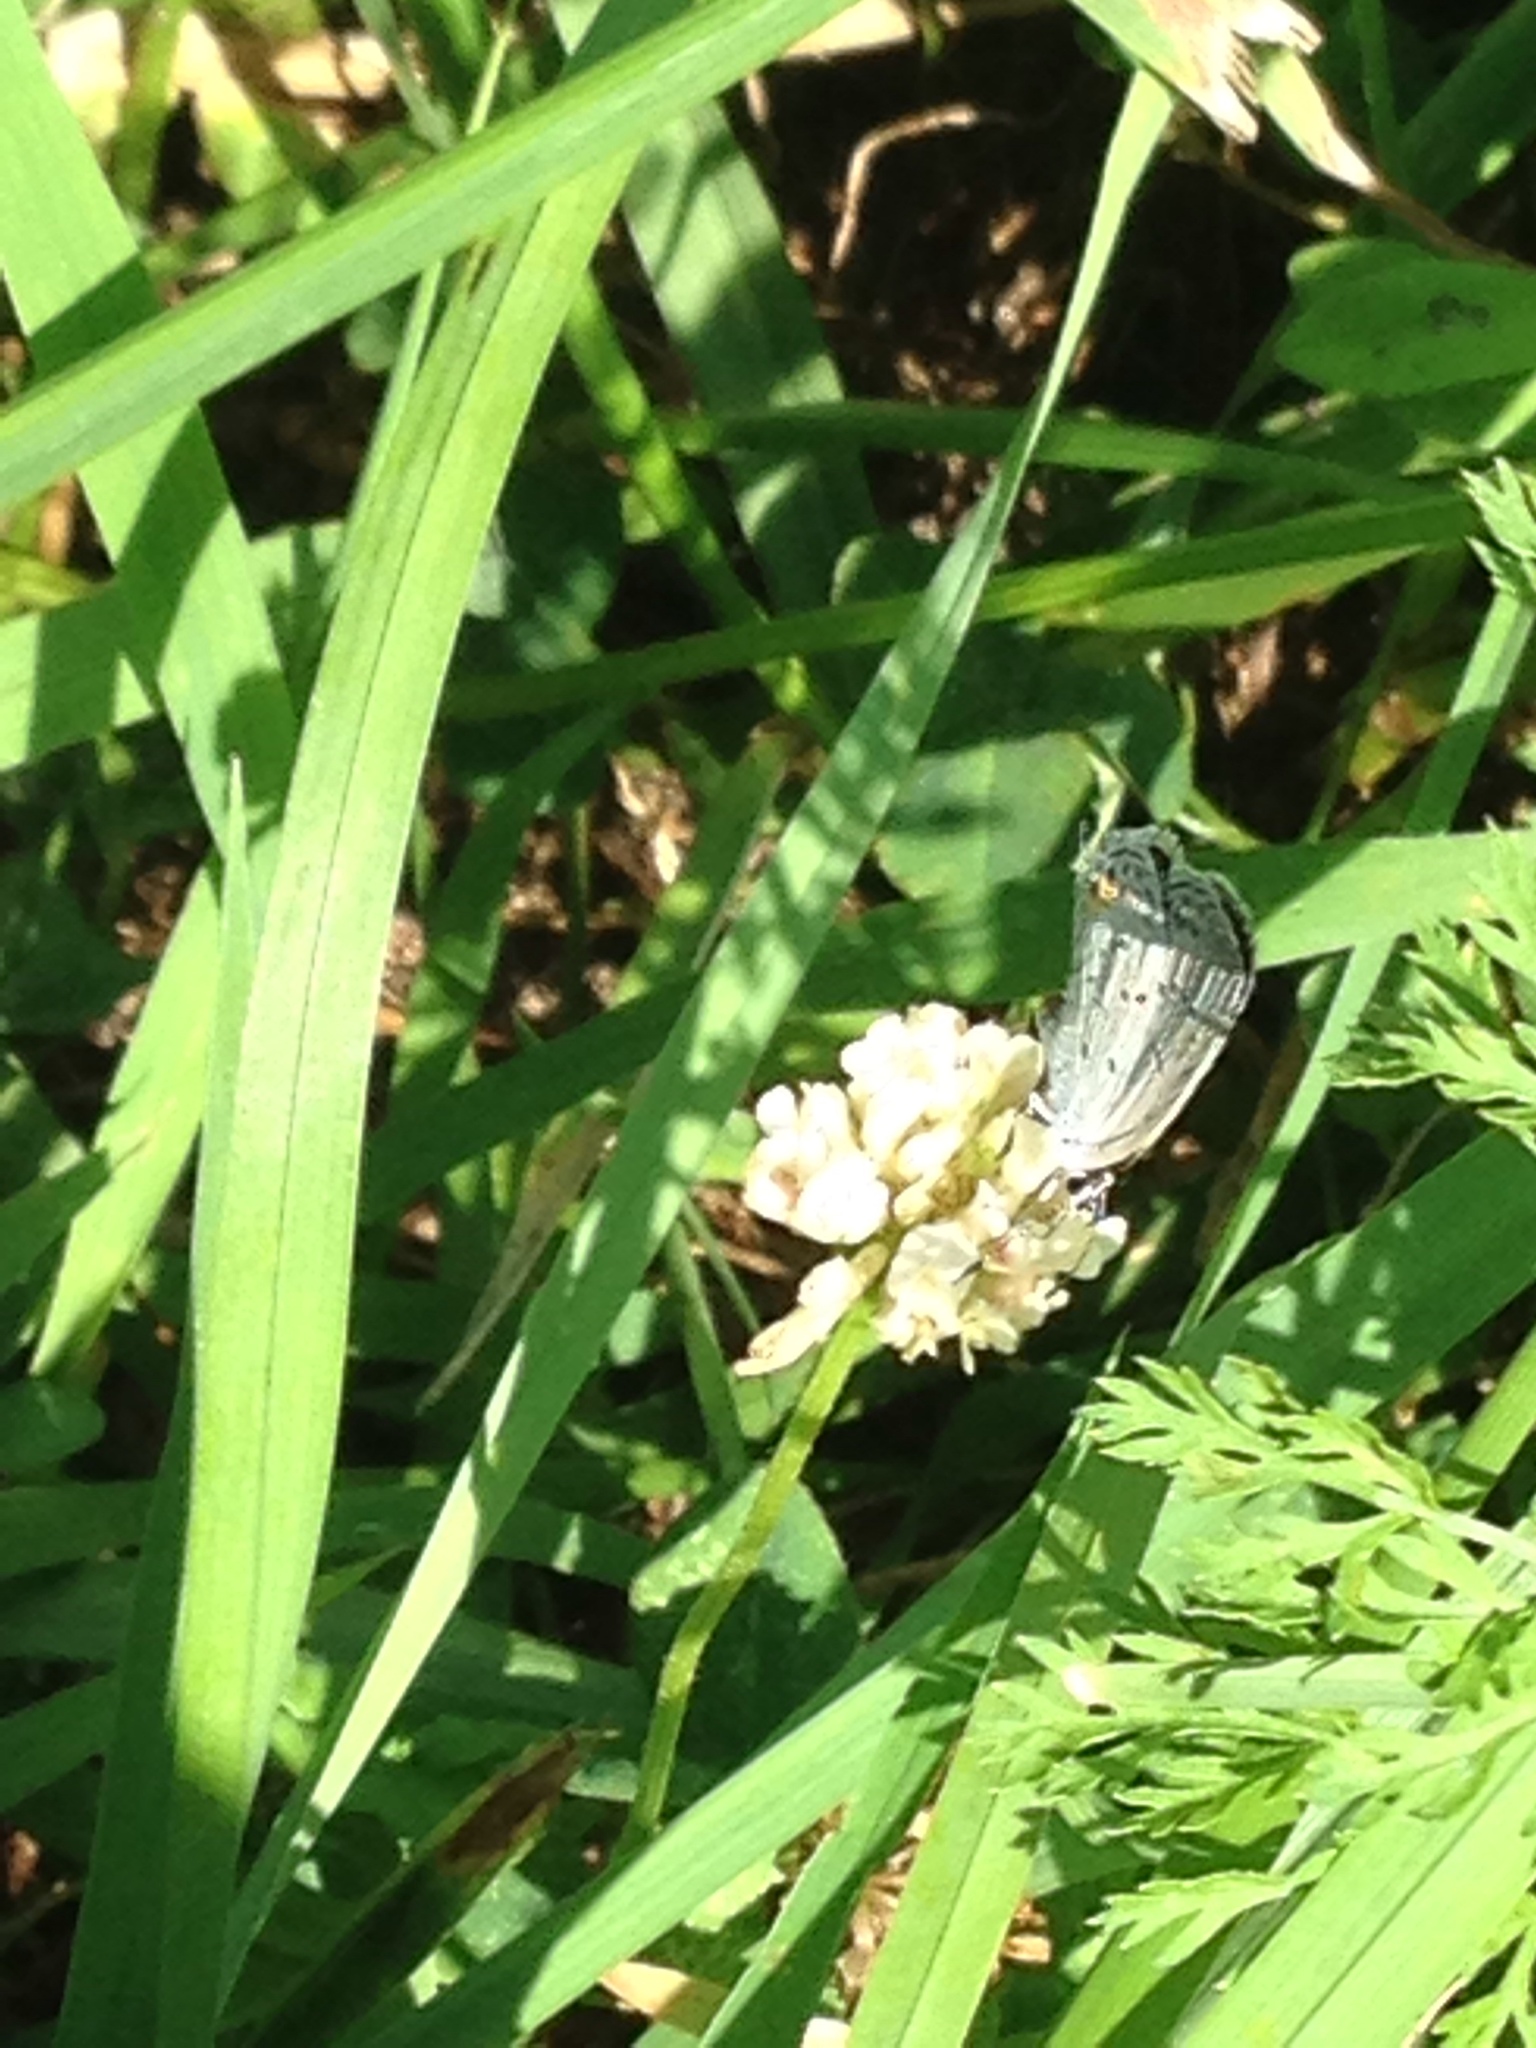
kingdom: Animalia
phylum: Arthropoda
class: Insecta
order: Lepidoptera
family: Lycaenidae
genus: Elkalyce
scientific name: Elkalyce comyntas
